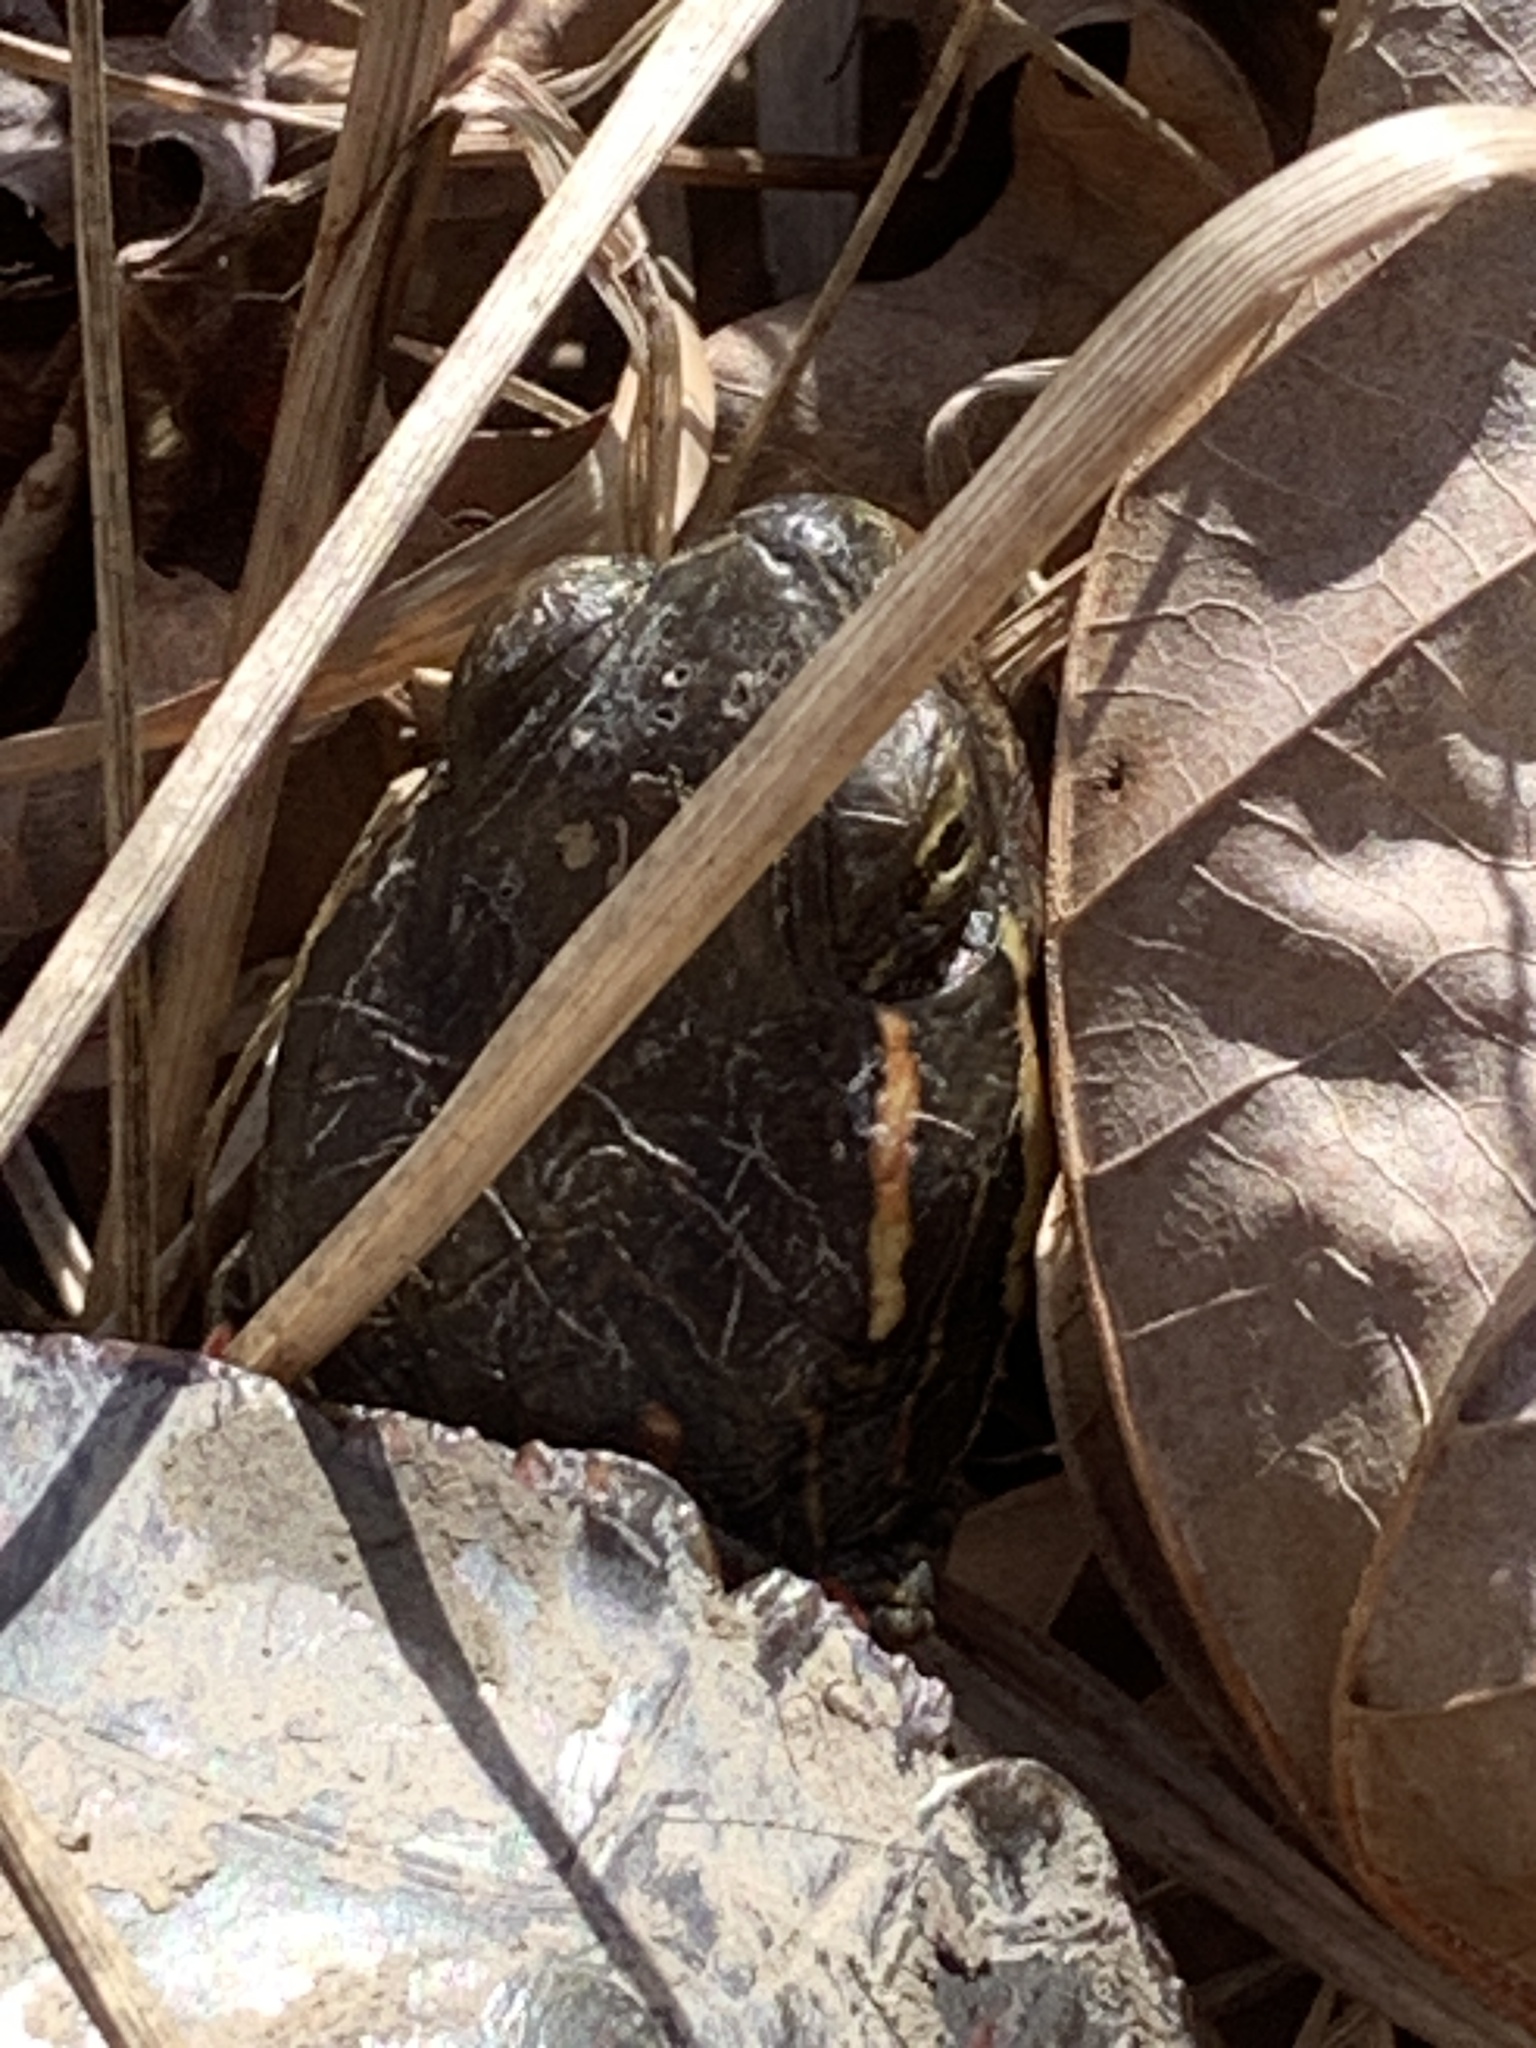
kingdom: Animalia
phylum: Chordata
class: Testudines
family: Emydidae
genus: Chrysemys
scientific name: Chrysemys picta
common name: Painted turtle
